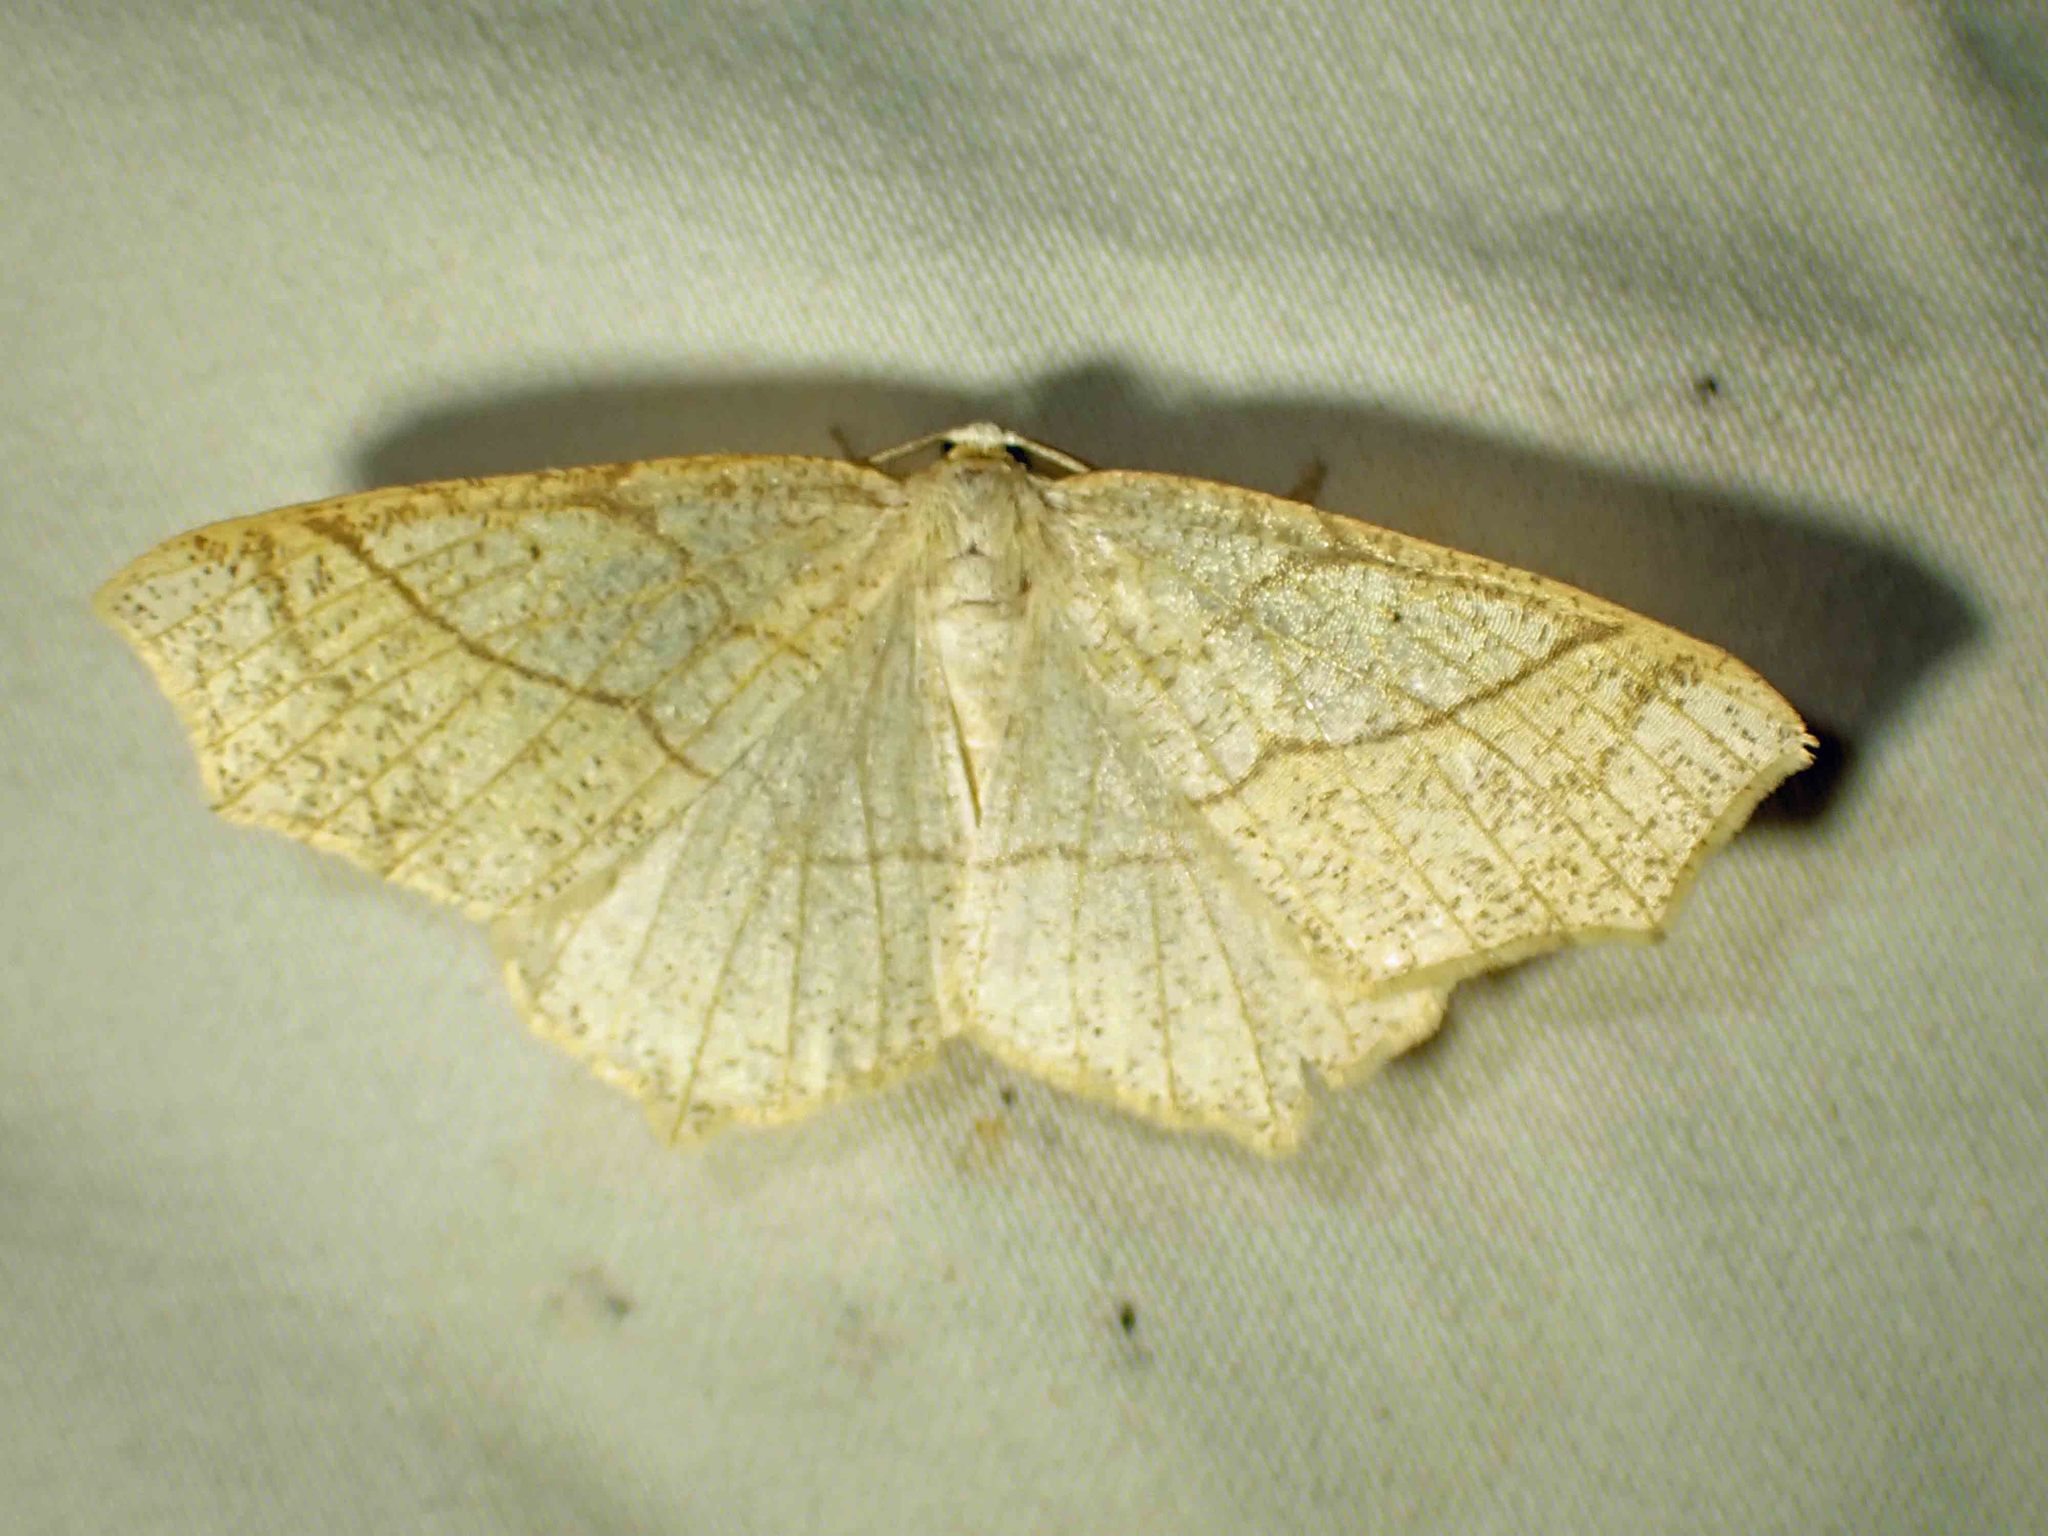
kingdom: Animalia
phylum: Arthropoda
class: Insecta
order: Lepidoptera
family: Geometridae
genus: Besma
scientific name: Besma quercivoraria
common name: Oak besma
